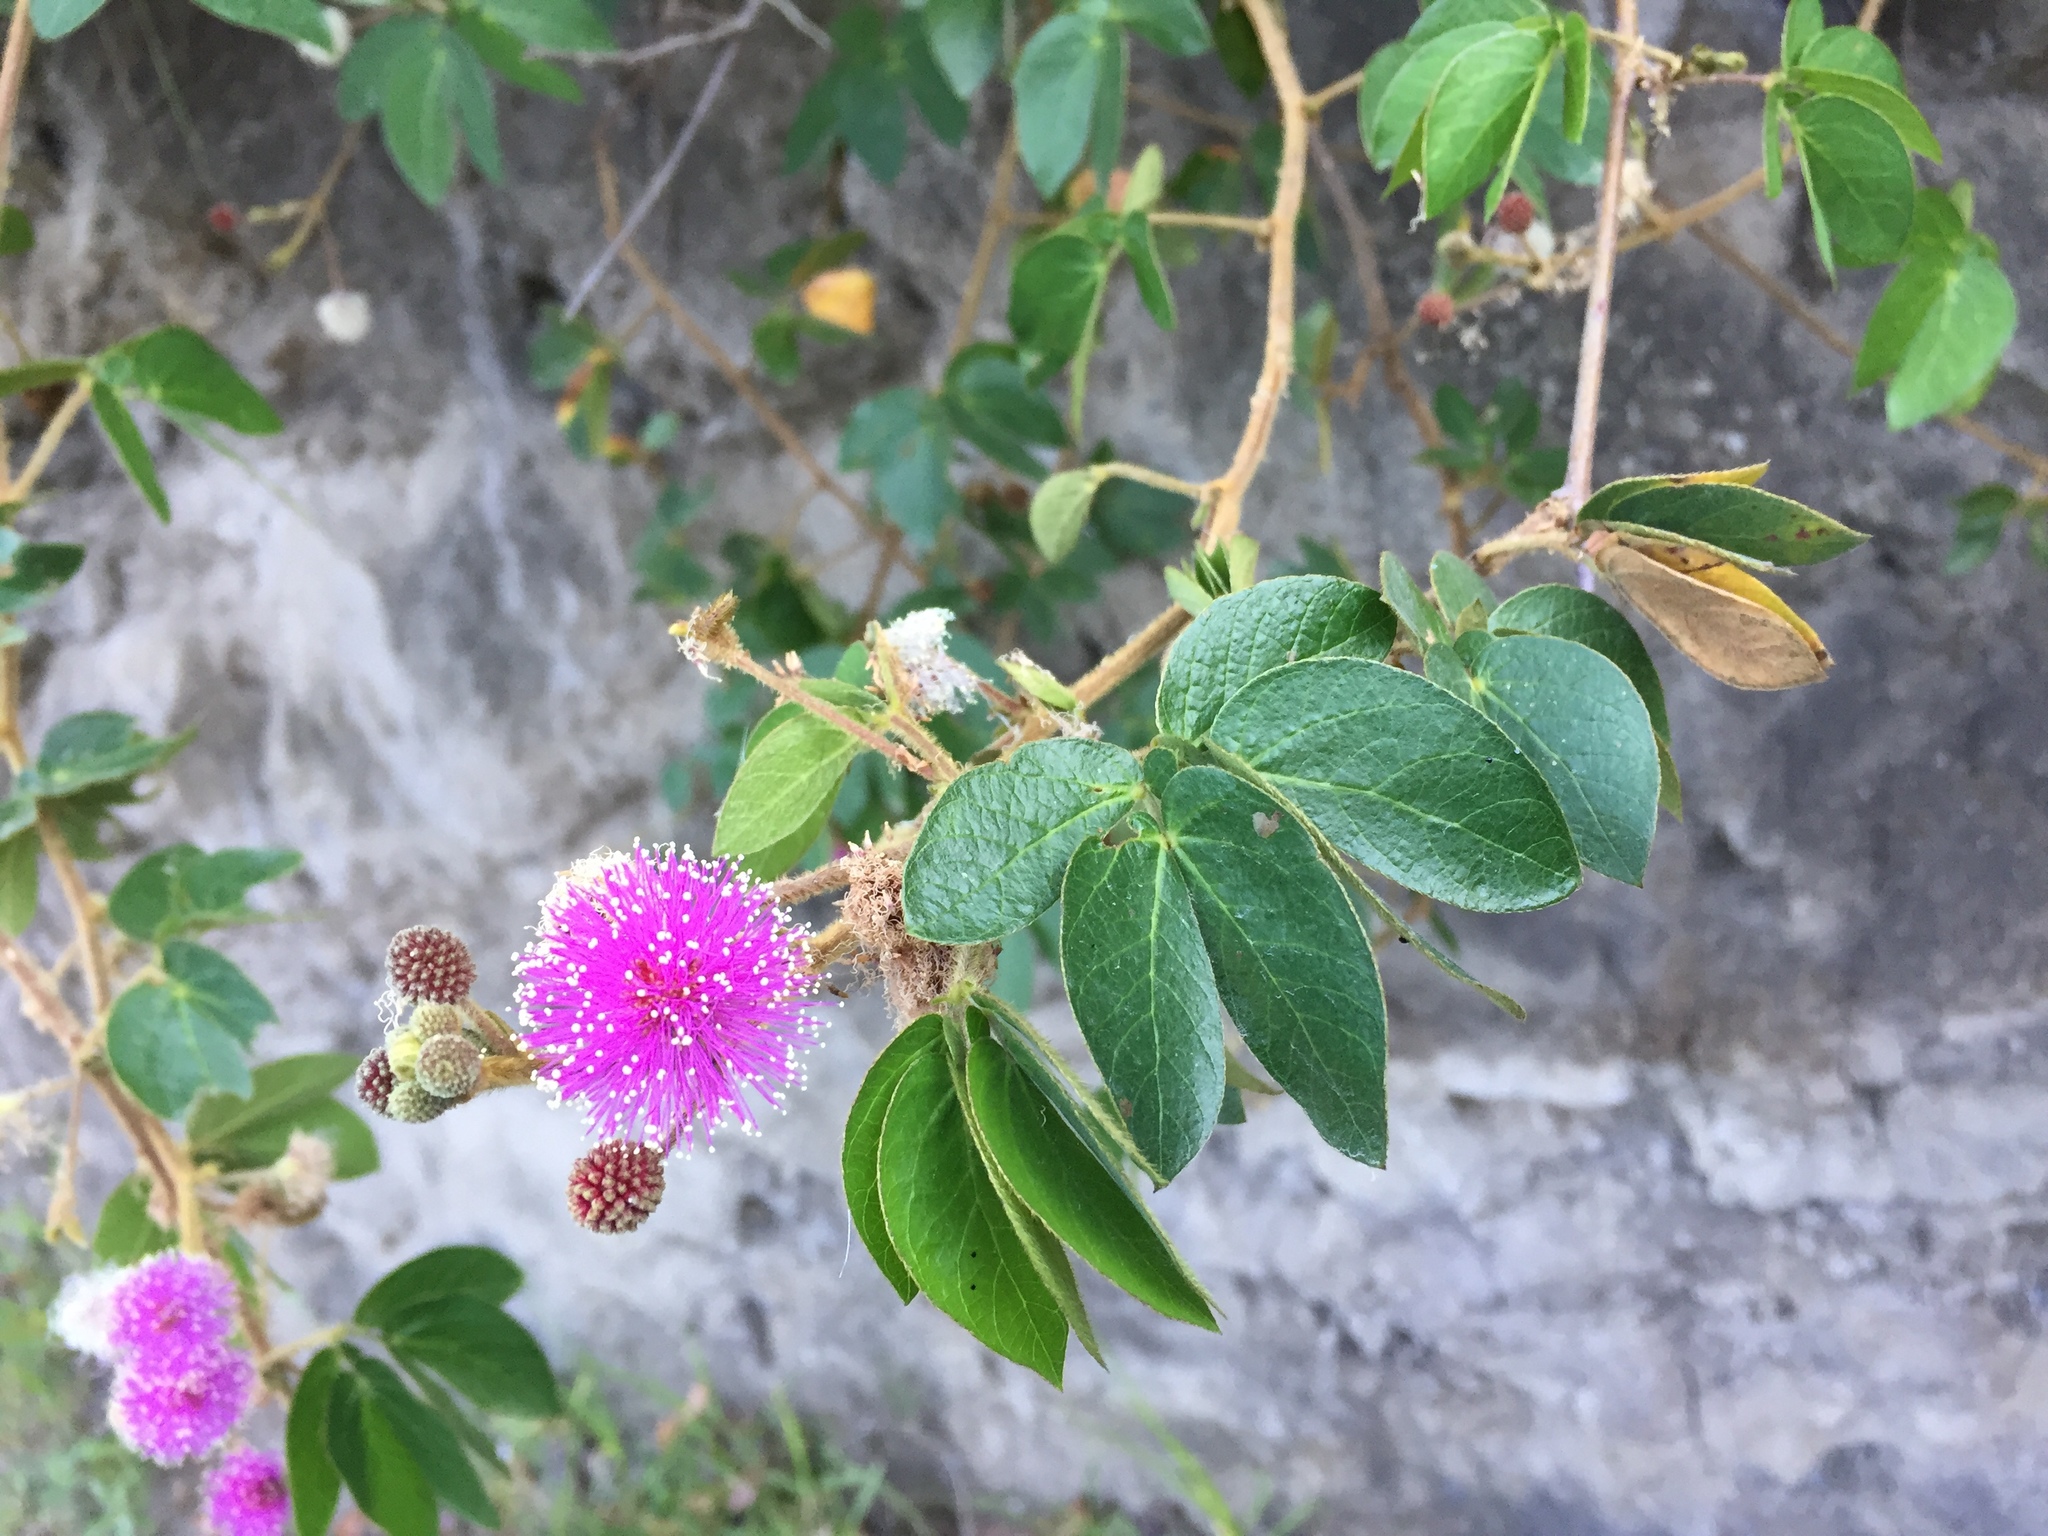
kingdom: Plantae
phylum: Tracheophyta
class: Magnoliopsida
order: Fabales
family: Fabaceae
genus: Mimosa
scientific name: Mimosa albida
